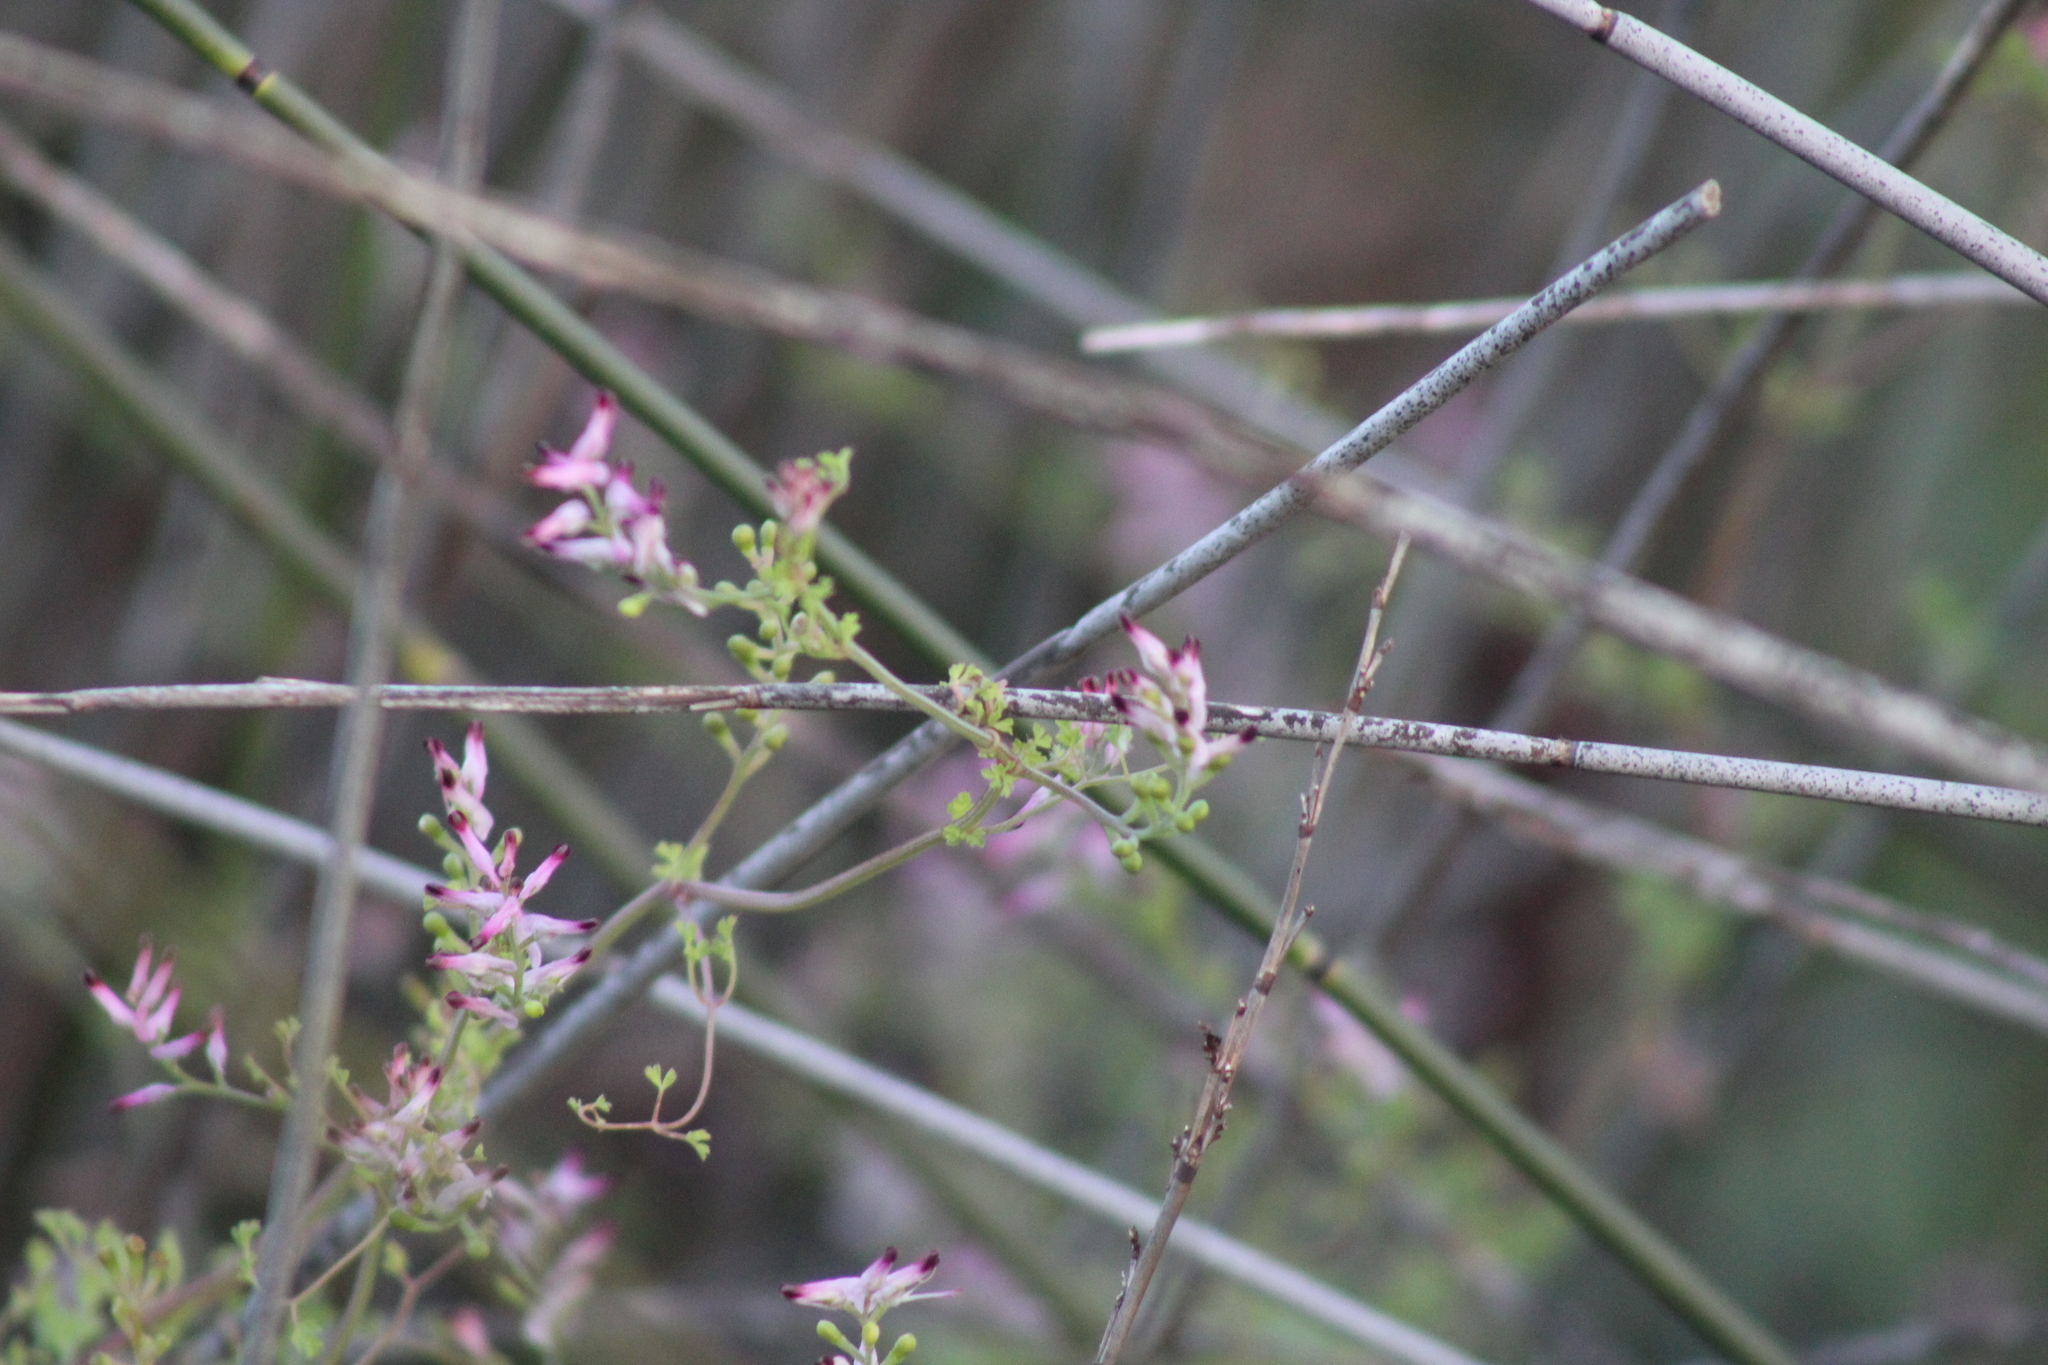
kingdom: Plantae
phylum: Tracheophyta
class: Magnoliopsida
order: Ranunculales
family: Papaveraceae
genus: Fumaria
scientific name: Fumaria muralis
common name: Common ramping-fumitory
